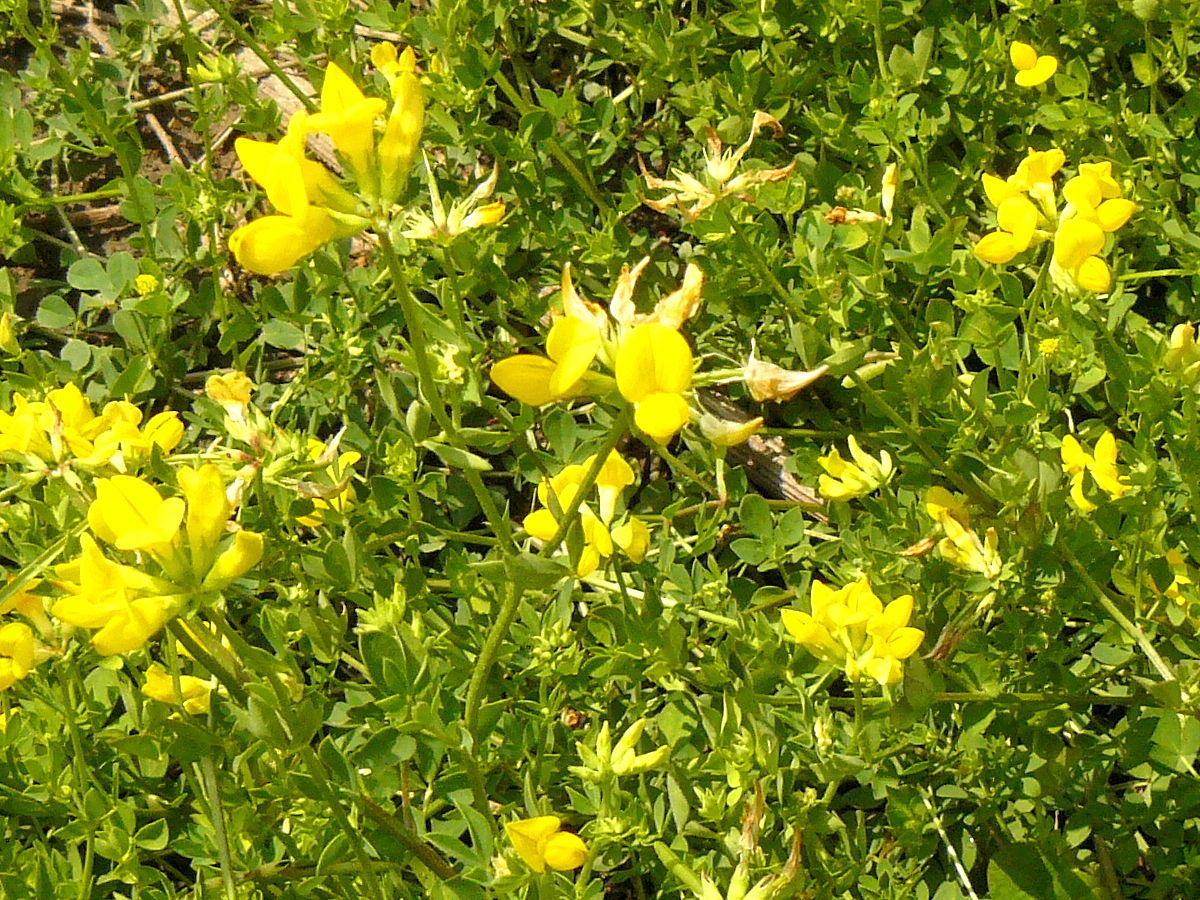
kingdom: Plantae
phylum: Tracheophyta
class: Magnoliopsida
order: Fabales
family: Fabaceae
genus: Lotus
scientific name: Lotus corniculatus
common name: Common bird's-foot-trefoil
